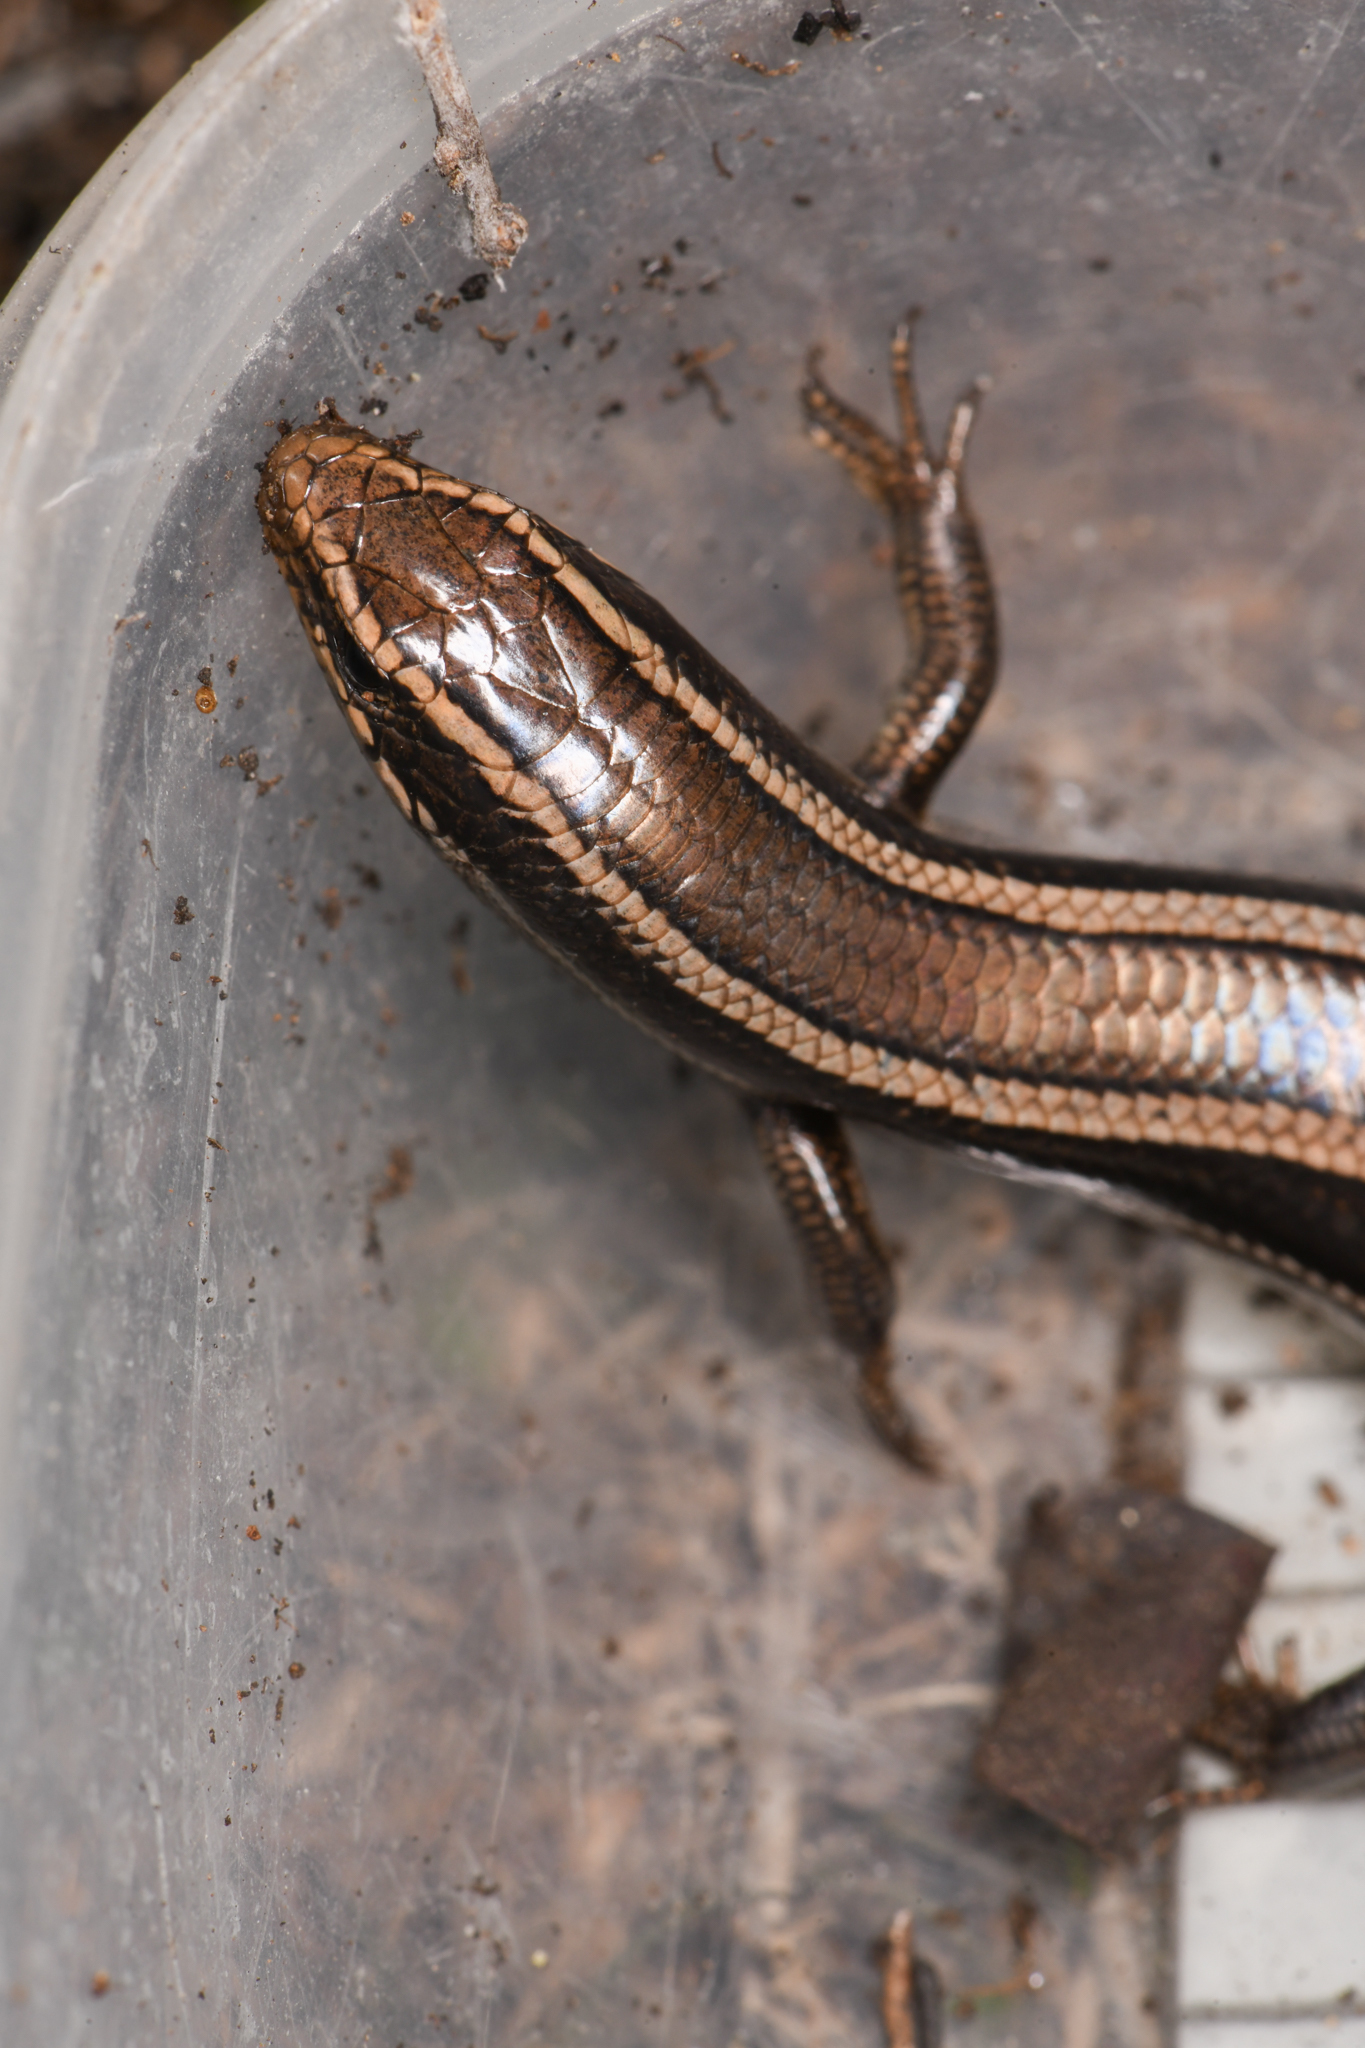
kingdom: Animalia
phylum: Chordata
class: Squamata
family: Scincidae
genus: Plestiodon
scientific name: Plestiodon skiltonianus
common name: Coronado island skink [interparietalis]
